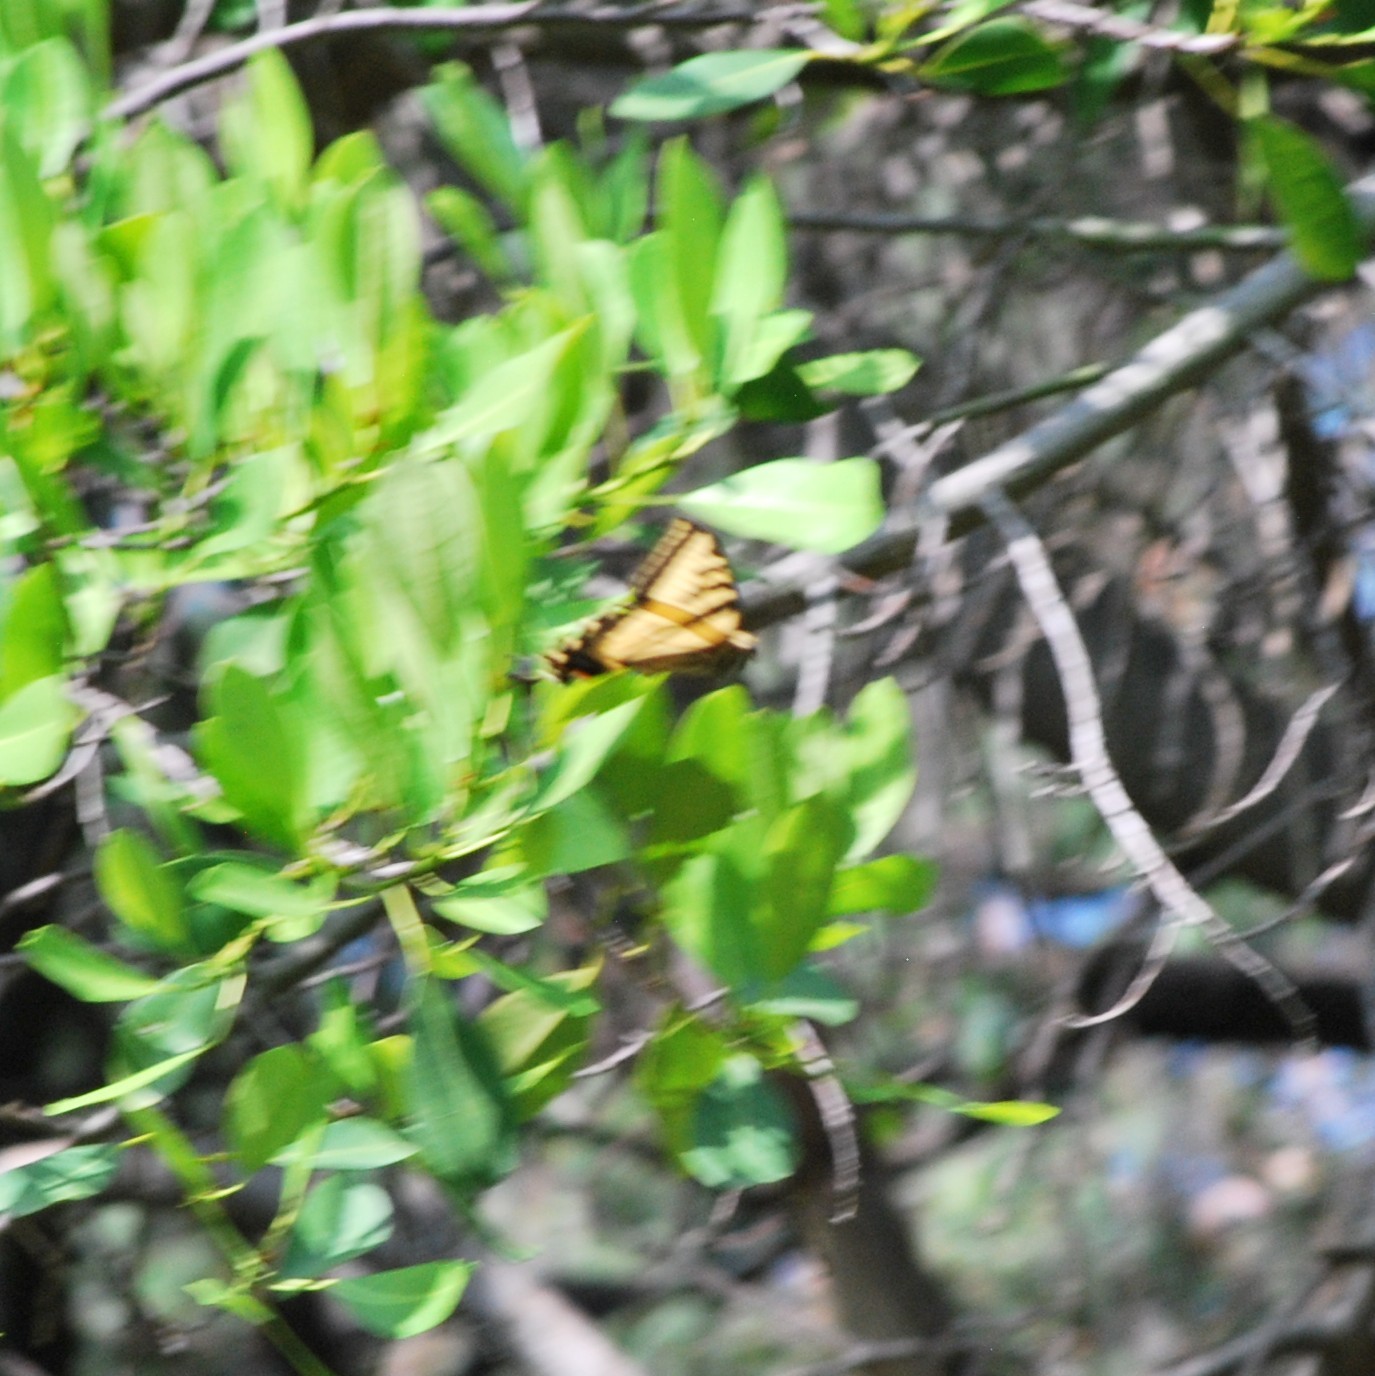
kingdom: Animalia
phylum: Arthropoda
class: Insecta
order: Lepidoptera
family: Papilionidae
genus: Papilio
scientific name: Papilio rutulus
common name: Western tiger swallowtail
